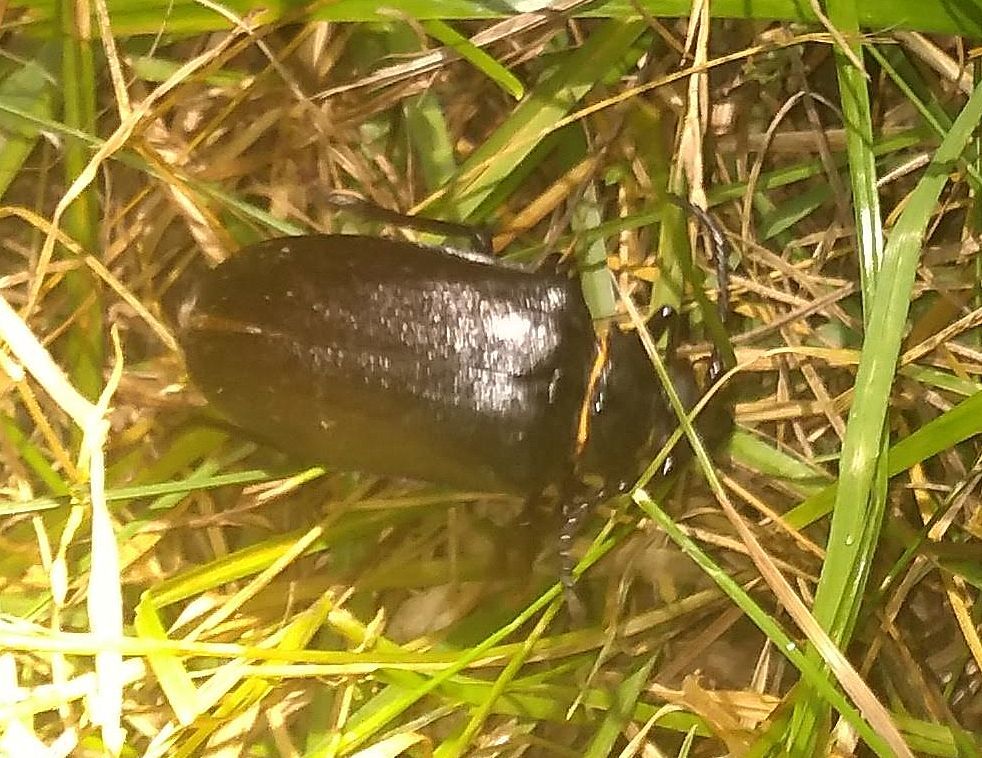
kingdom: Animalia
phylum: Arthropoda
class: Insecta
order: Coleoptera
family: Cerambycidae
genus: Prionus
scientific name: Prionus coriarius
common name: Tanner beetle
